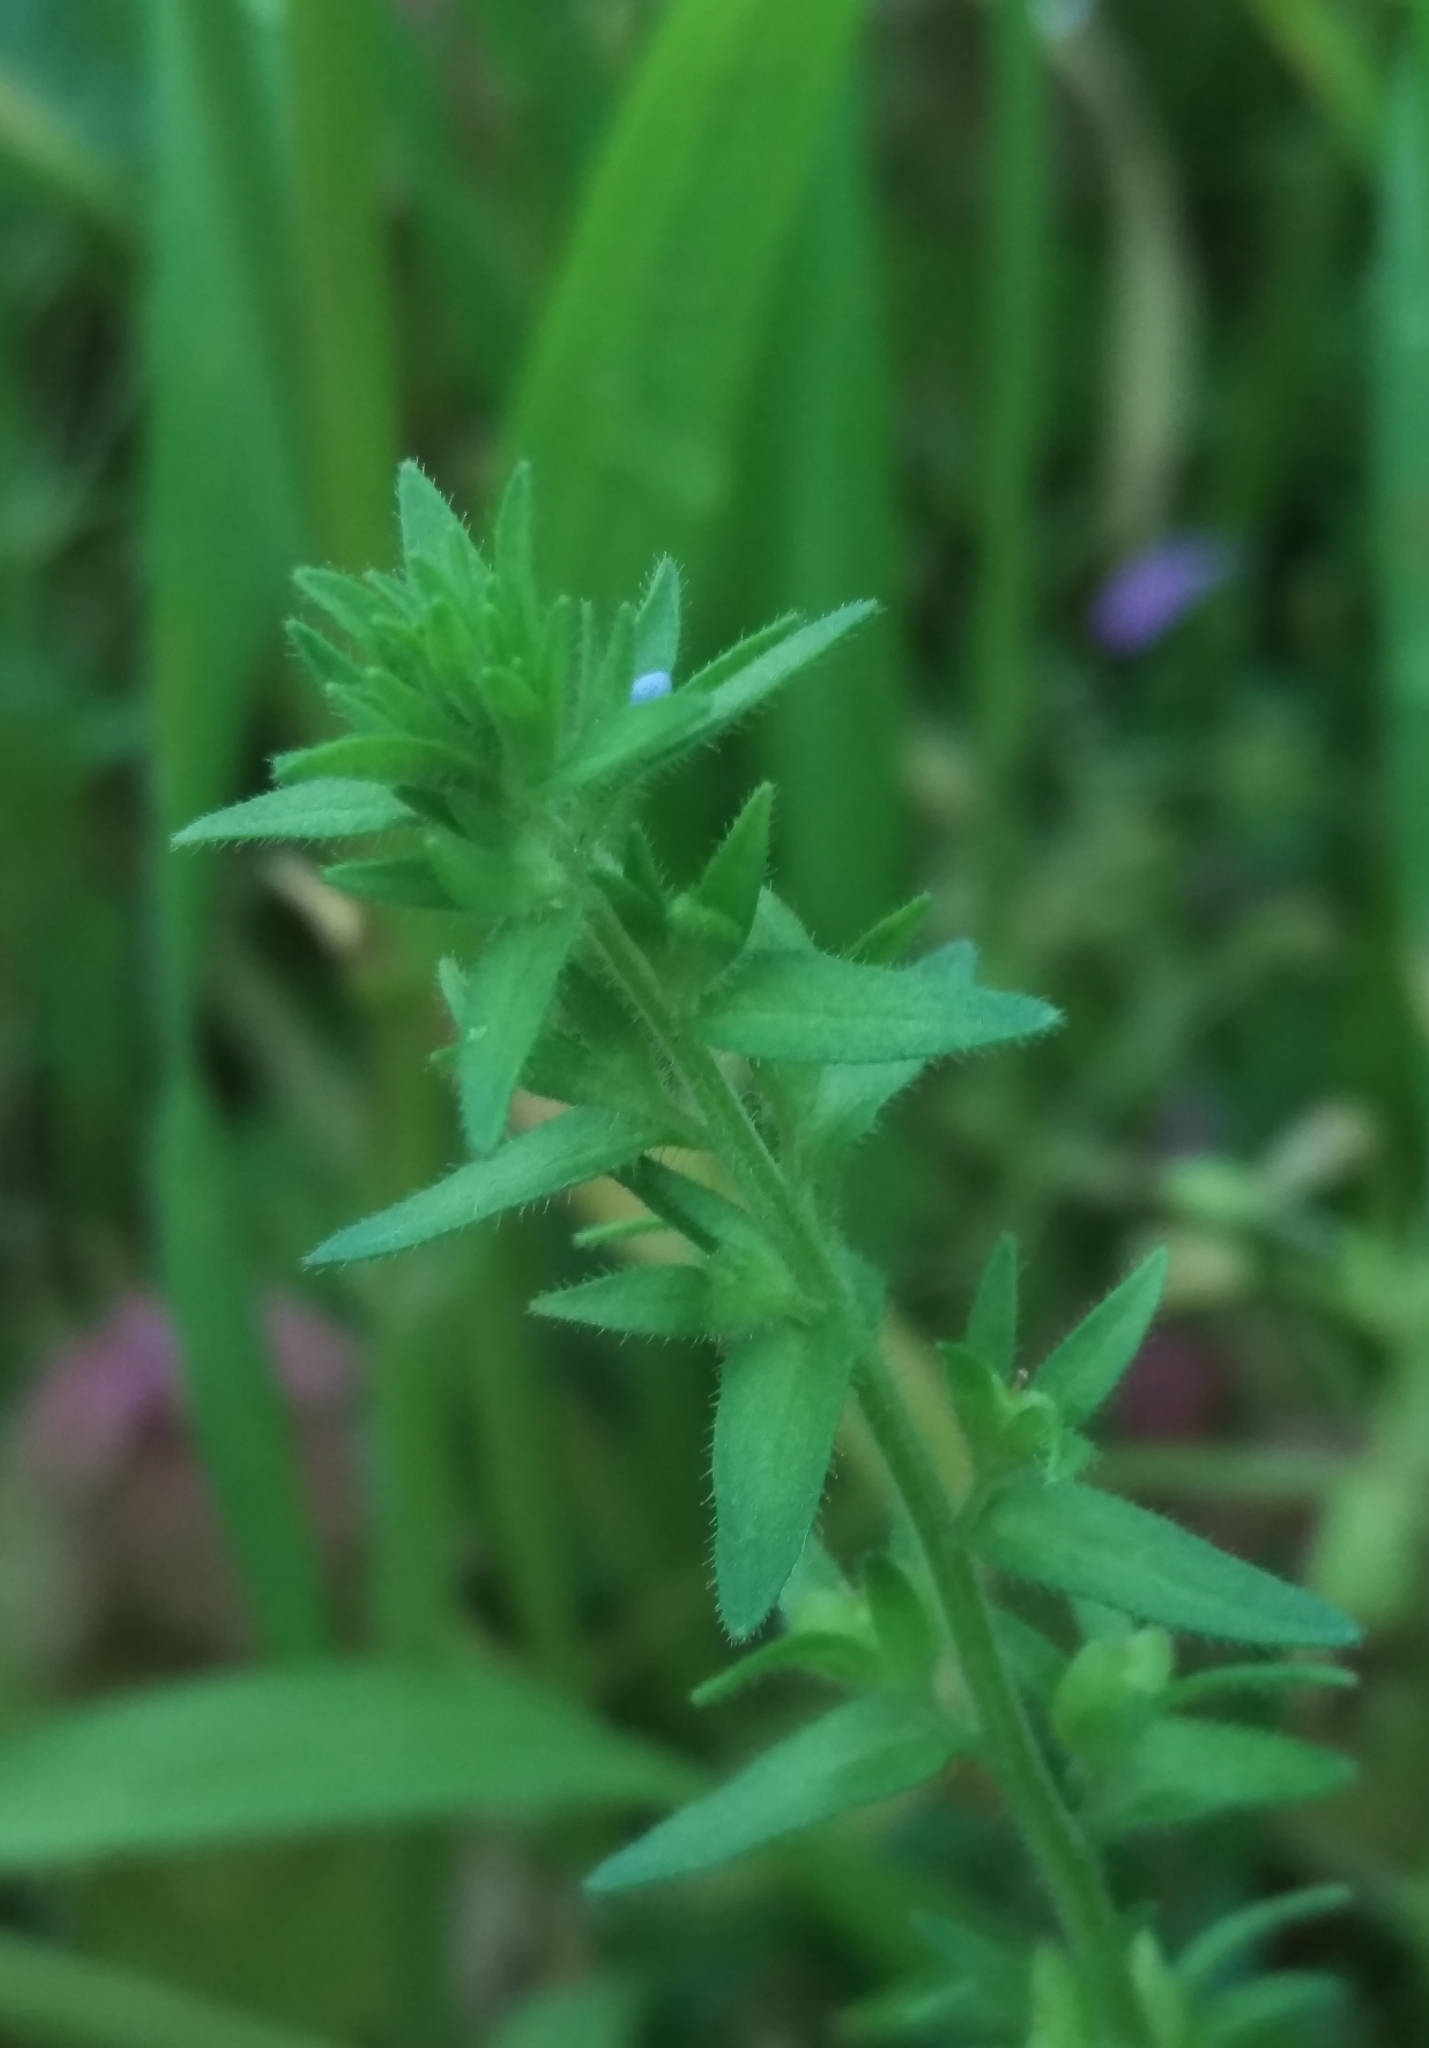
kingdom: Plantae
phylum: Tracheophyta
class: Magnoliopsida
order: Lamiales
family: Plantaginaceae
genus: Veronica
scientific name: Veronica arvensis
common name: Corn speedwell
